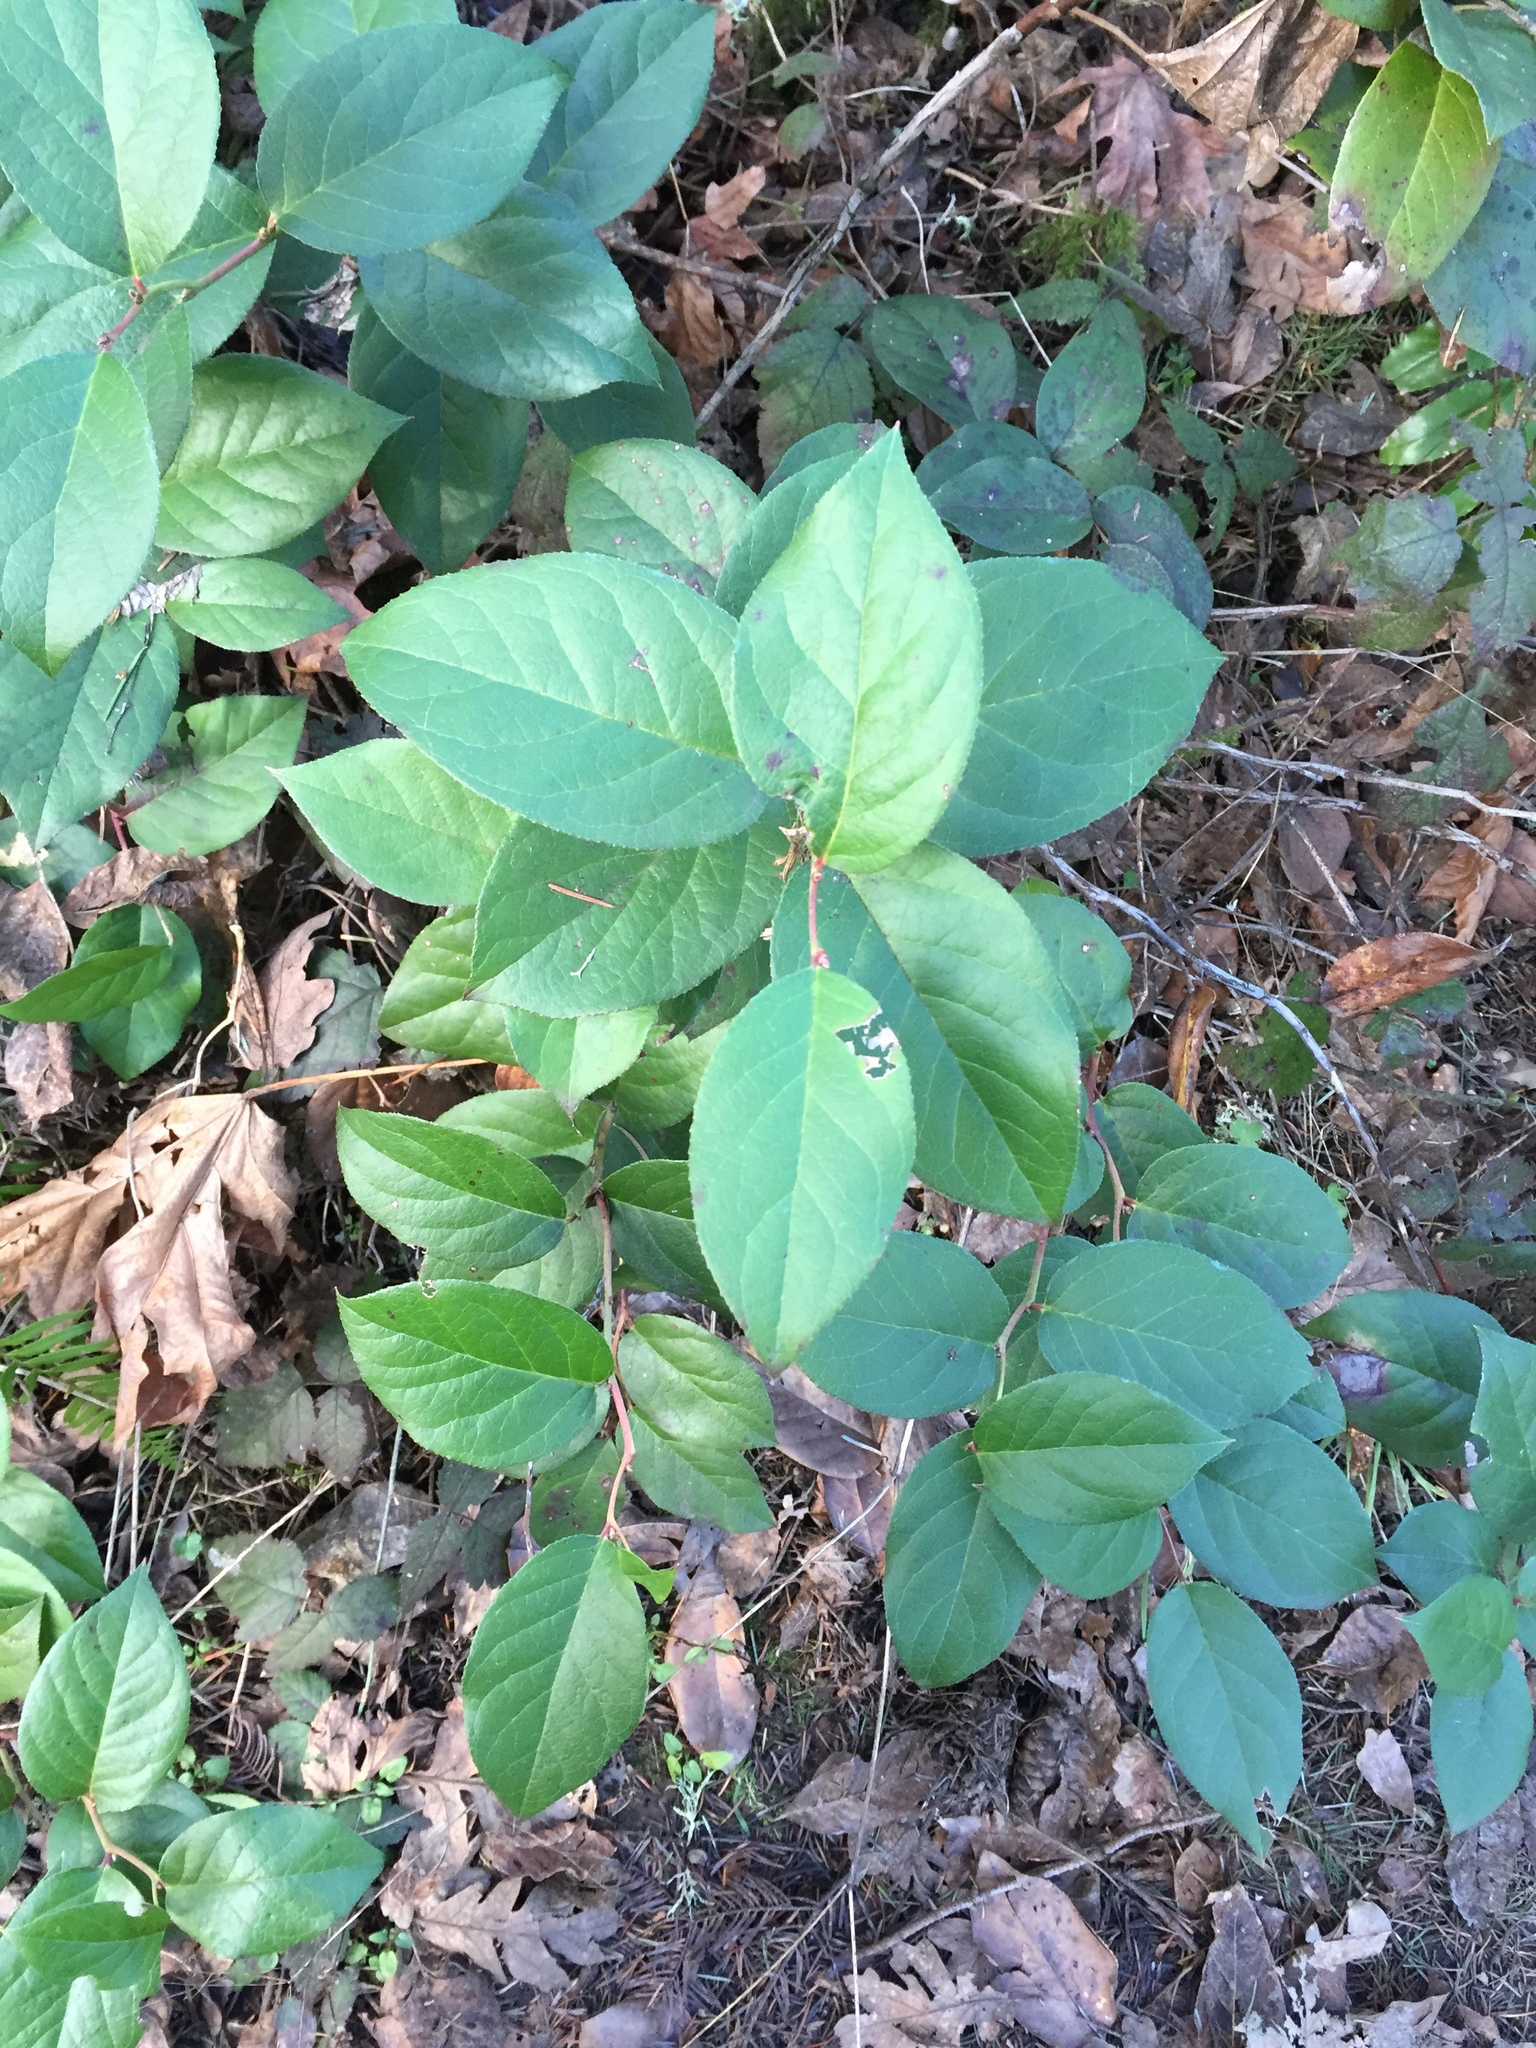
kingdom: Plantae
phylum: Tracheophyta
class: Magnoliopsida
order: Ericales
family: Ericaceae
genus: Gaultheria
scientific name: Gaultheria shallon
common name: Shallon
